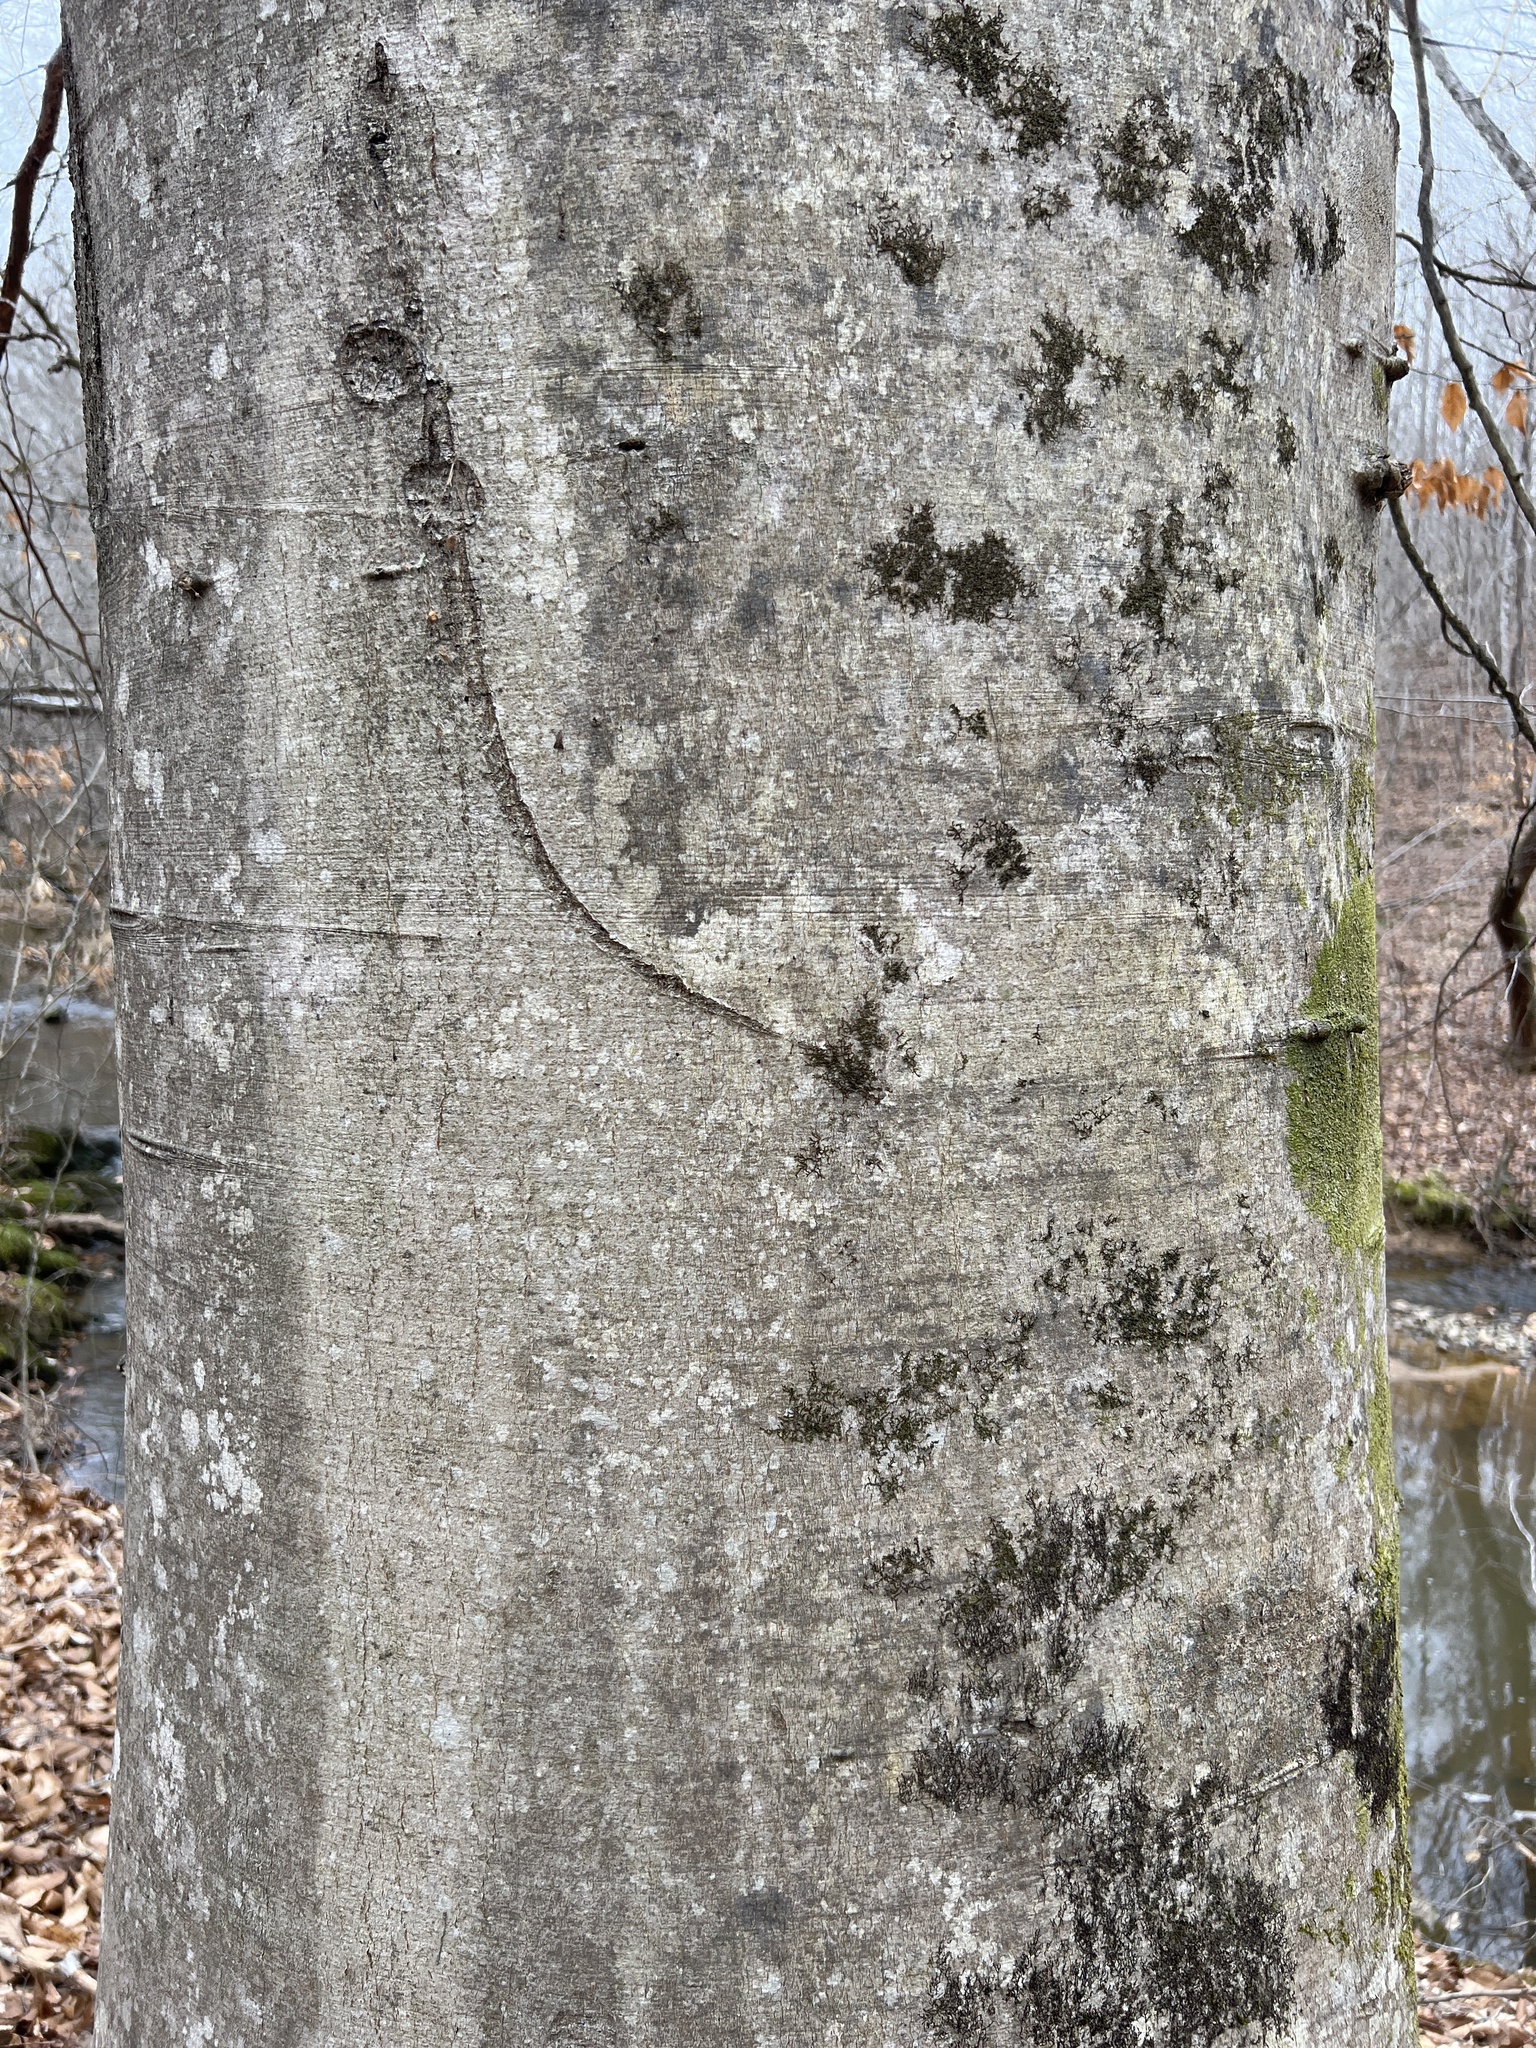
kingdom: Plantae
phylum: Tracheophyta
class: Magnoliopsida
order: Fagales
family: Fagaceae
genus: Fagus
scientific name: Fagus grandifolia
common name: American beech
